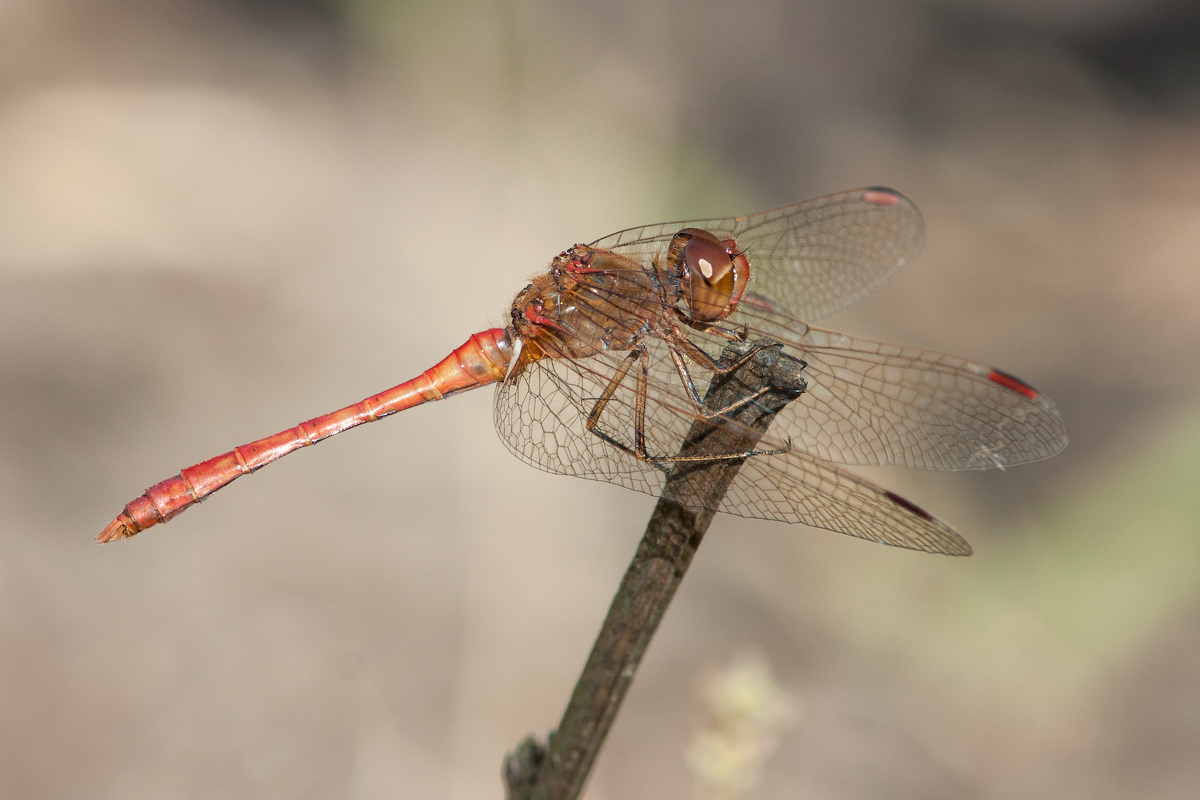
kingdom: Animalia
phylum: Arthropoda
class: Insecta
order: Odonata
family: Libellulidae
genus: Sympetrum
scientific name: Sympetrum meridionale
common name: Southern darter
